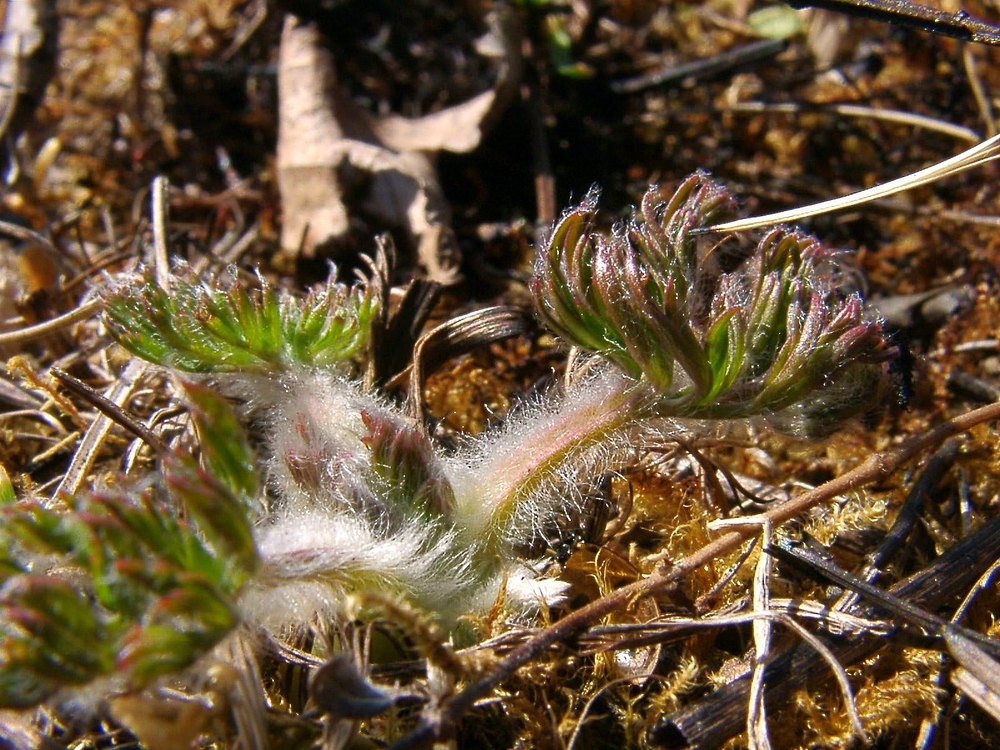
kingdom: Plantae
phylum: Tracheophyta
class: Magnoliopsida
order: Ranunculales
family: Ranunculaceae
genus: Pulsatilla
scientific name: Pulsatilla vulgaris
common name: Pasqueflower
